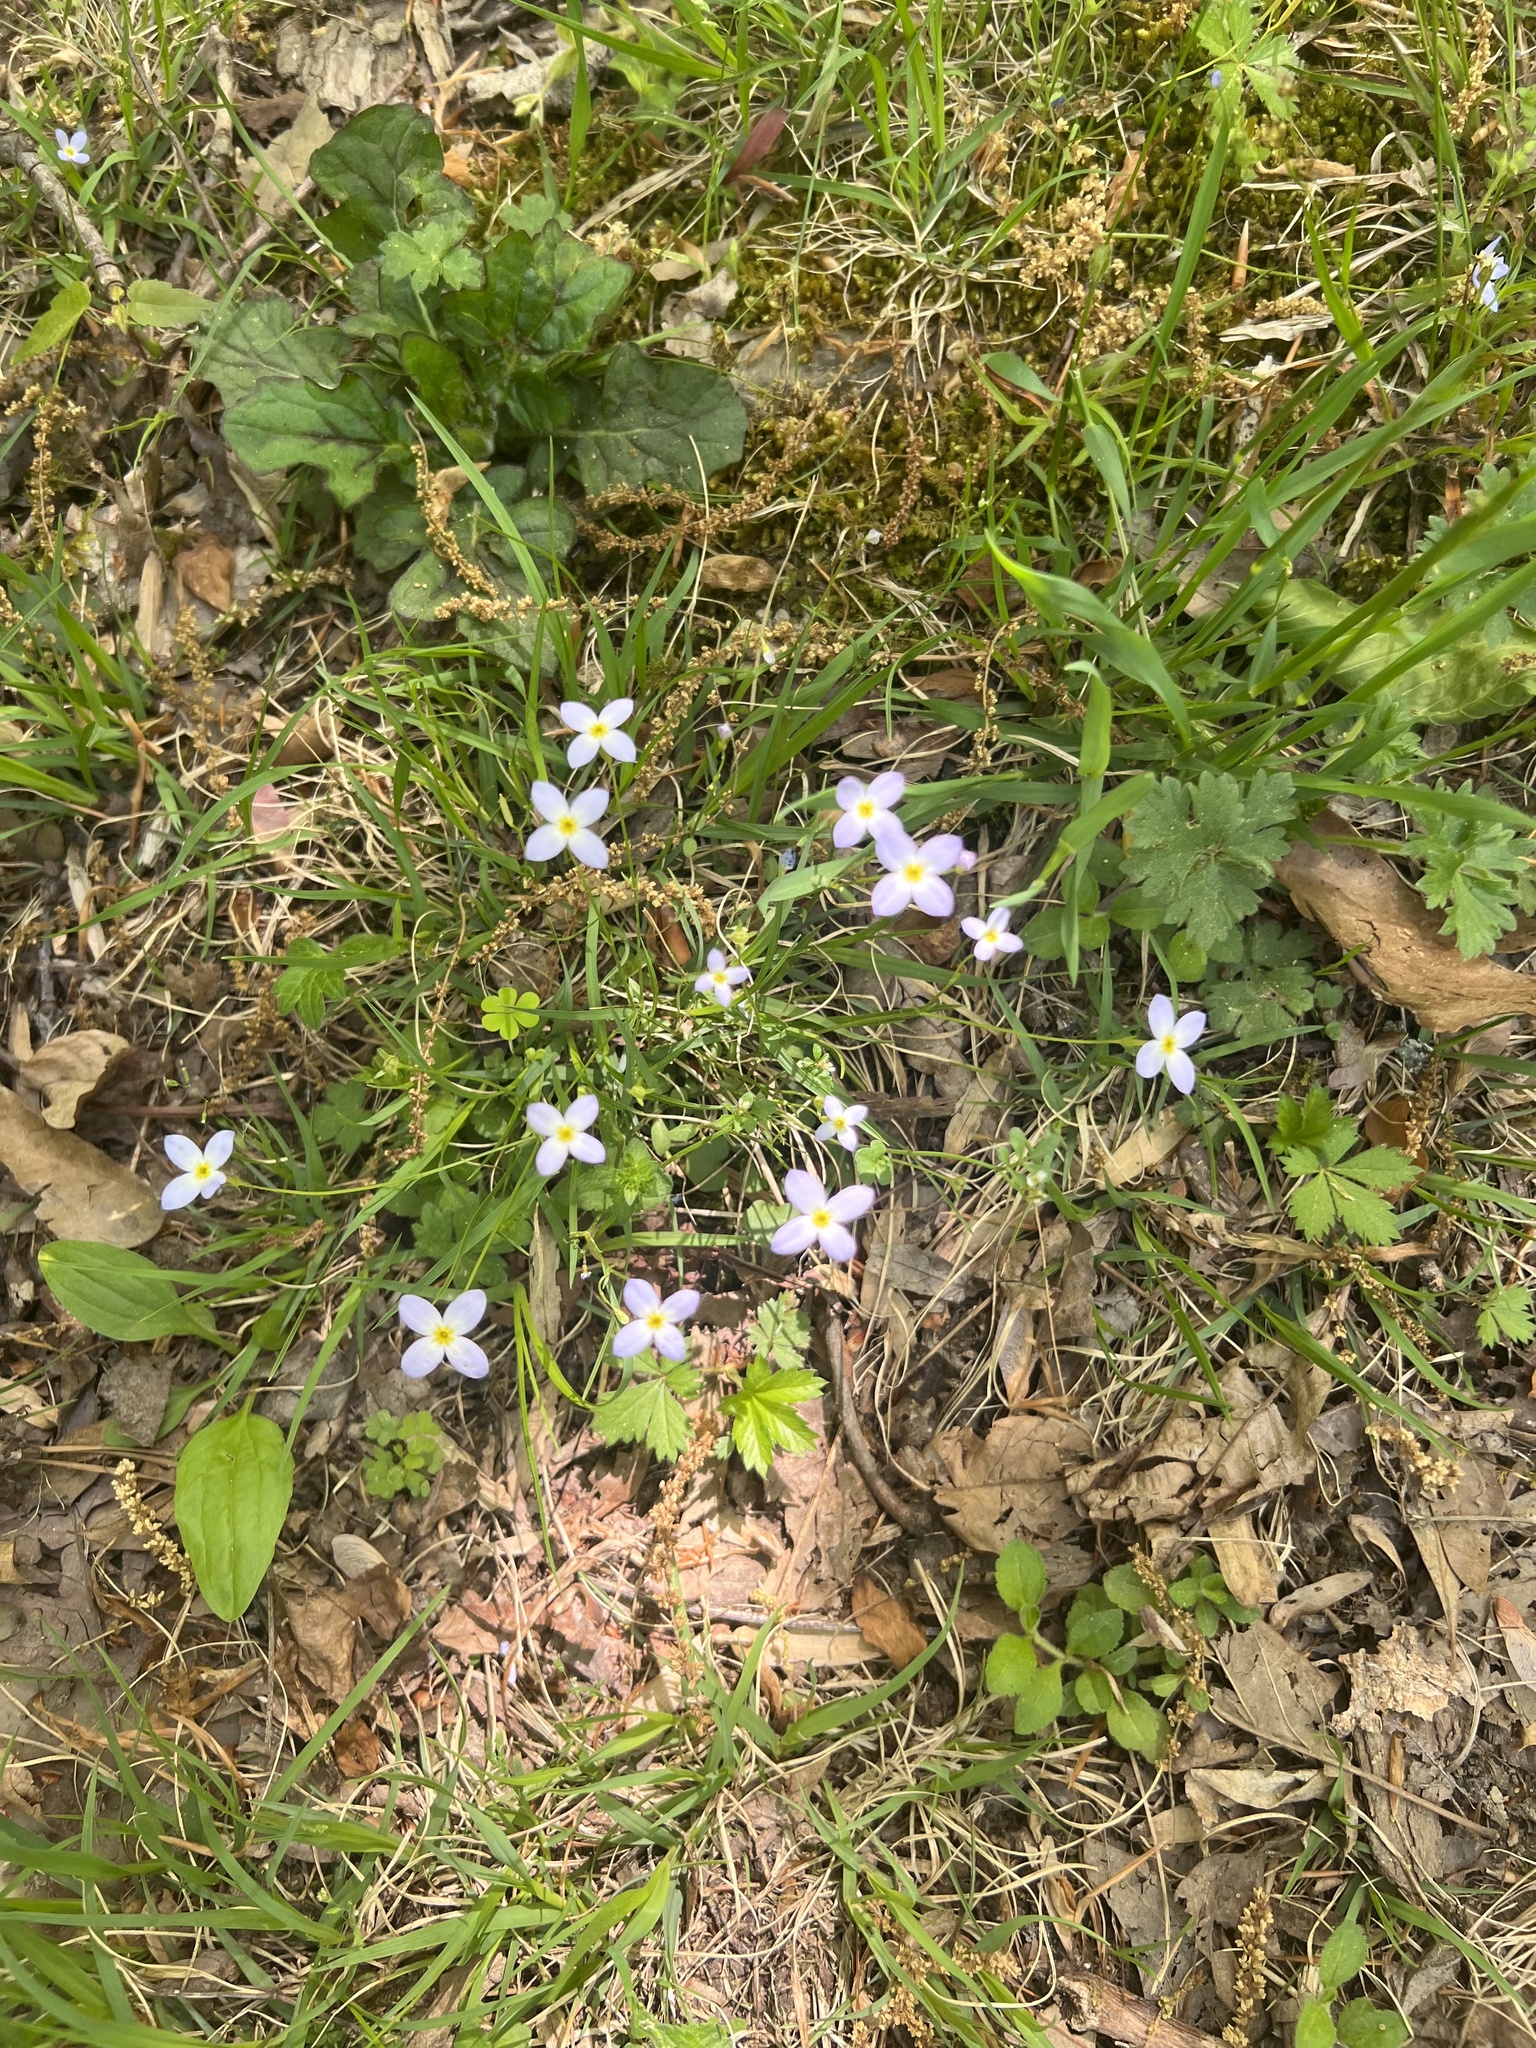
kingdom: Plantae
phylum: Tracheophyta
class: Magnoliopsida
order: Gentianales
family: Rubiaceae
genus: Houstonia
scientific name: Houstonia caerulea
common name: Bluets
